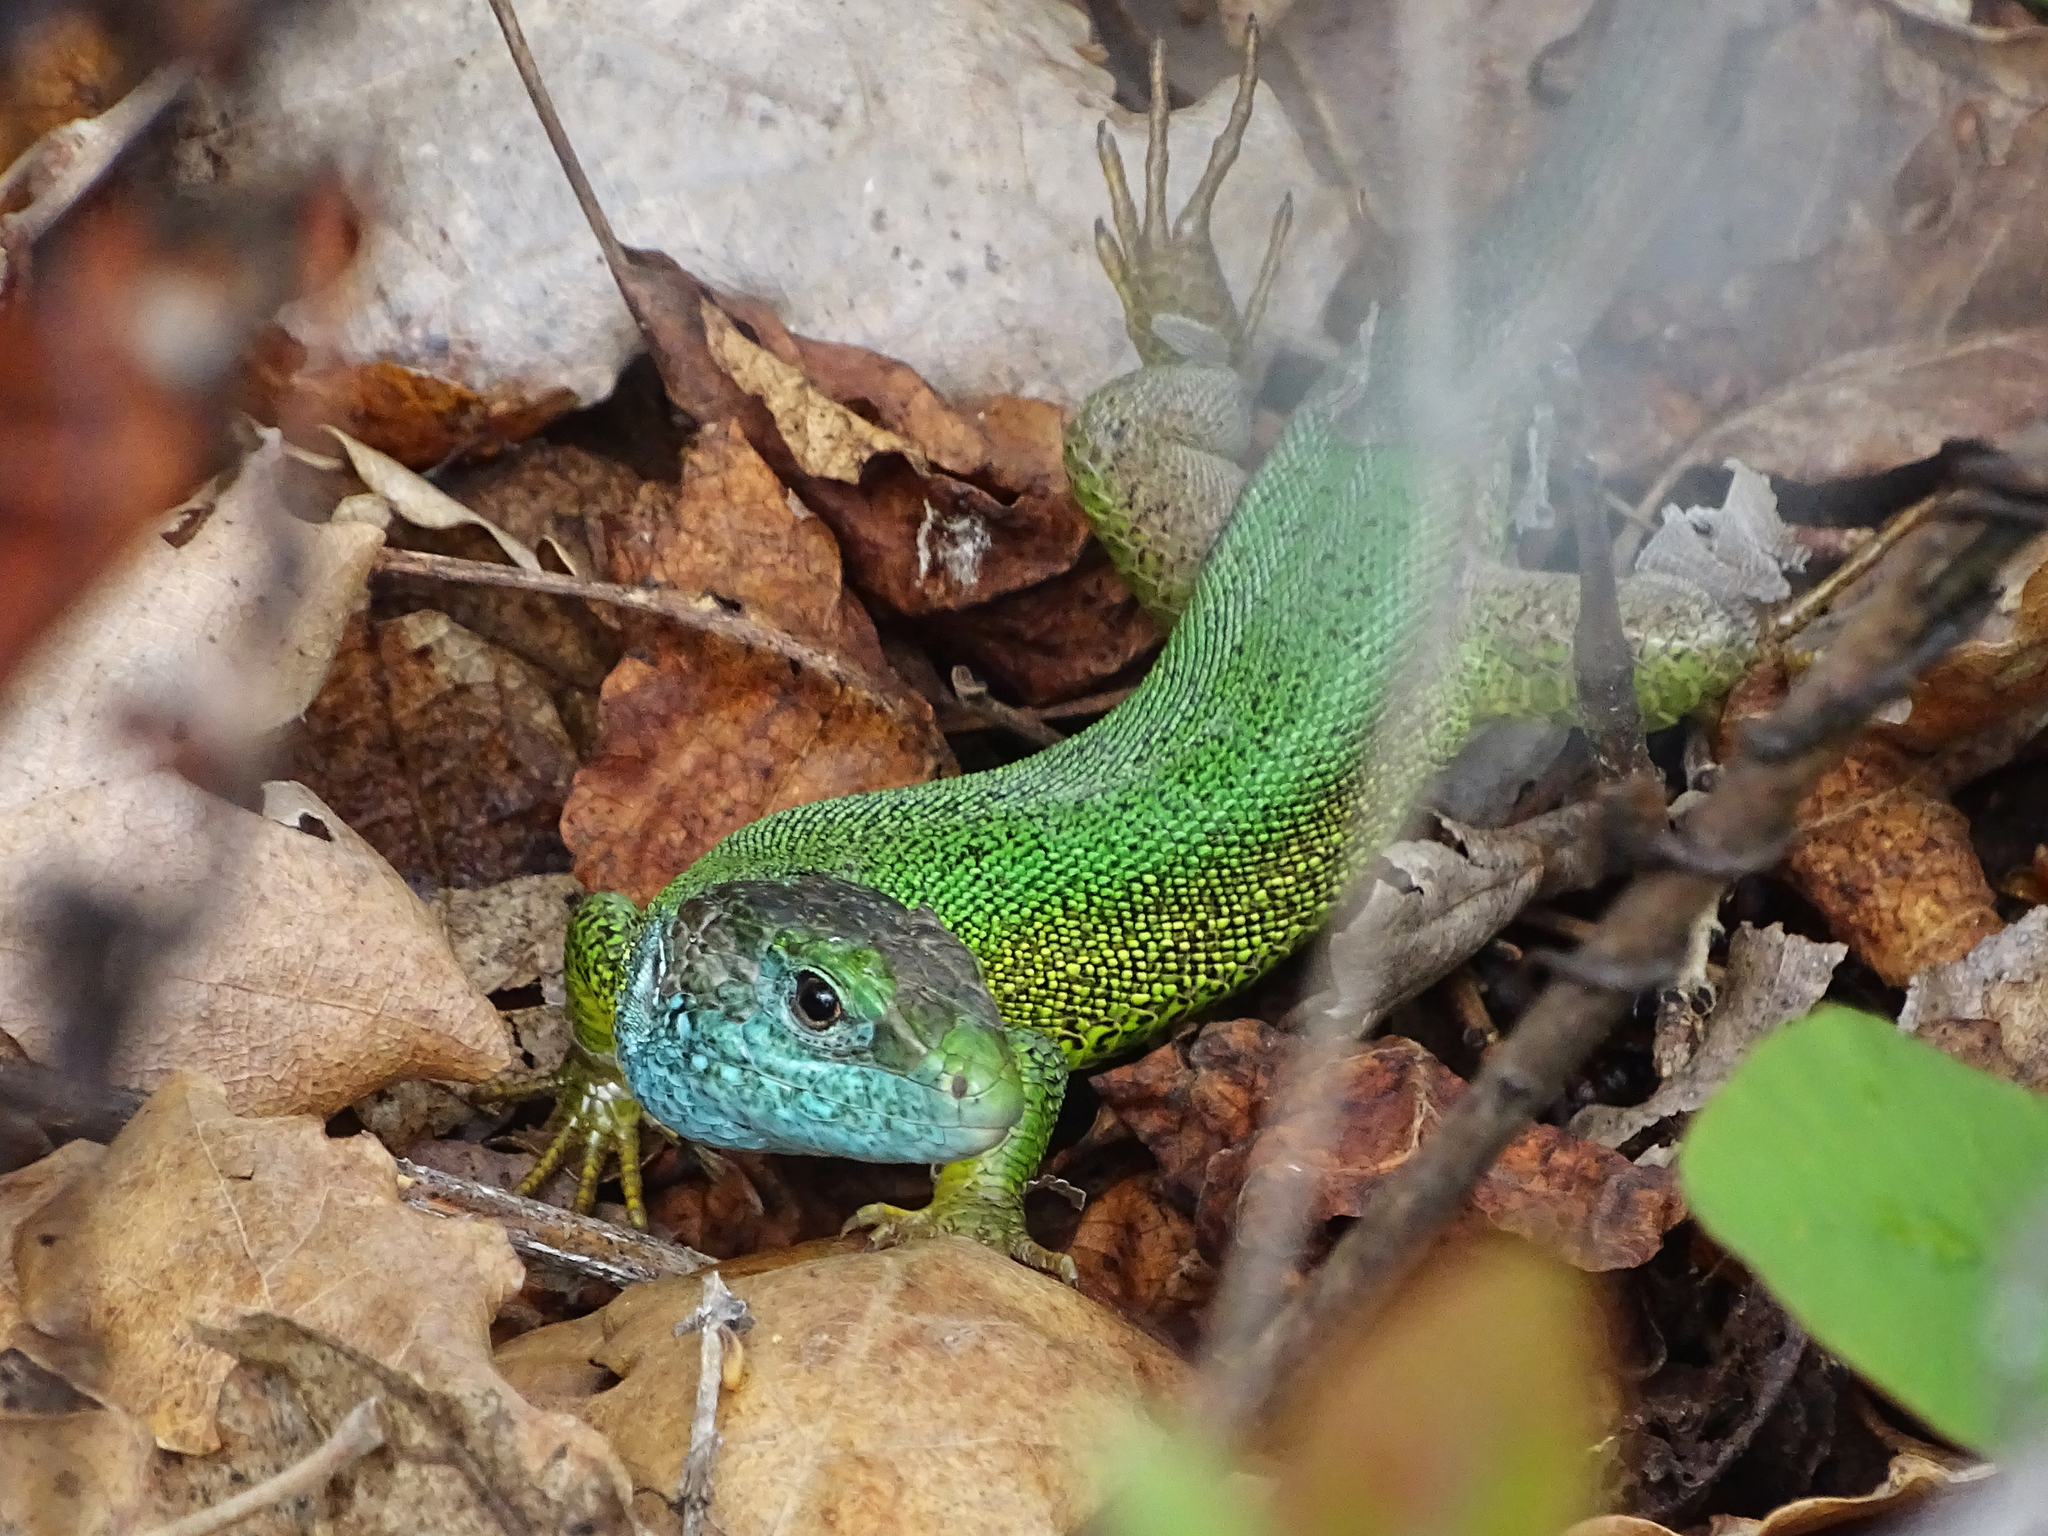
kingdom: Animalia
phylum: Chordata
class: Squamata
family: Lacertidae
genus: Lacerta
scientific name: Lacerta viridis
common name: European green lizard
